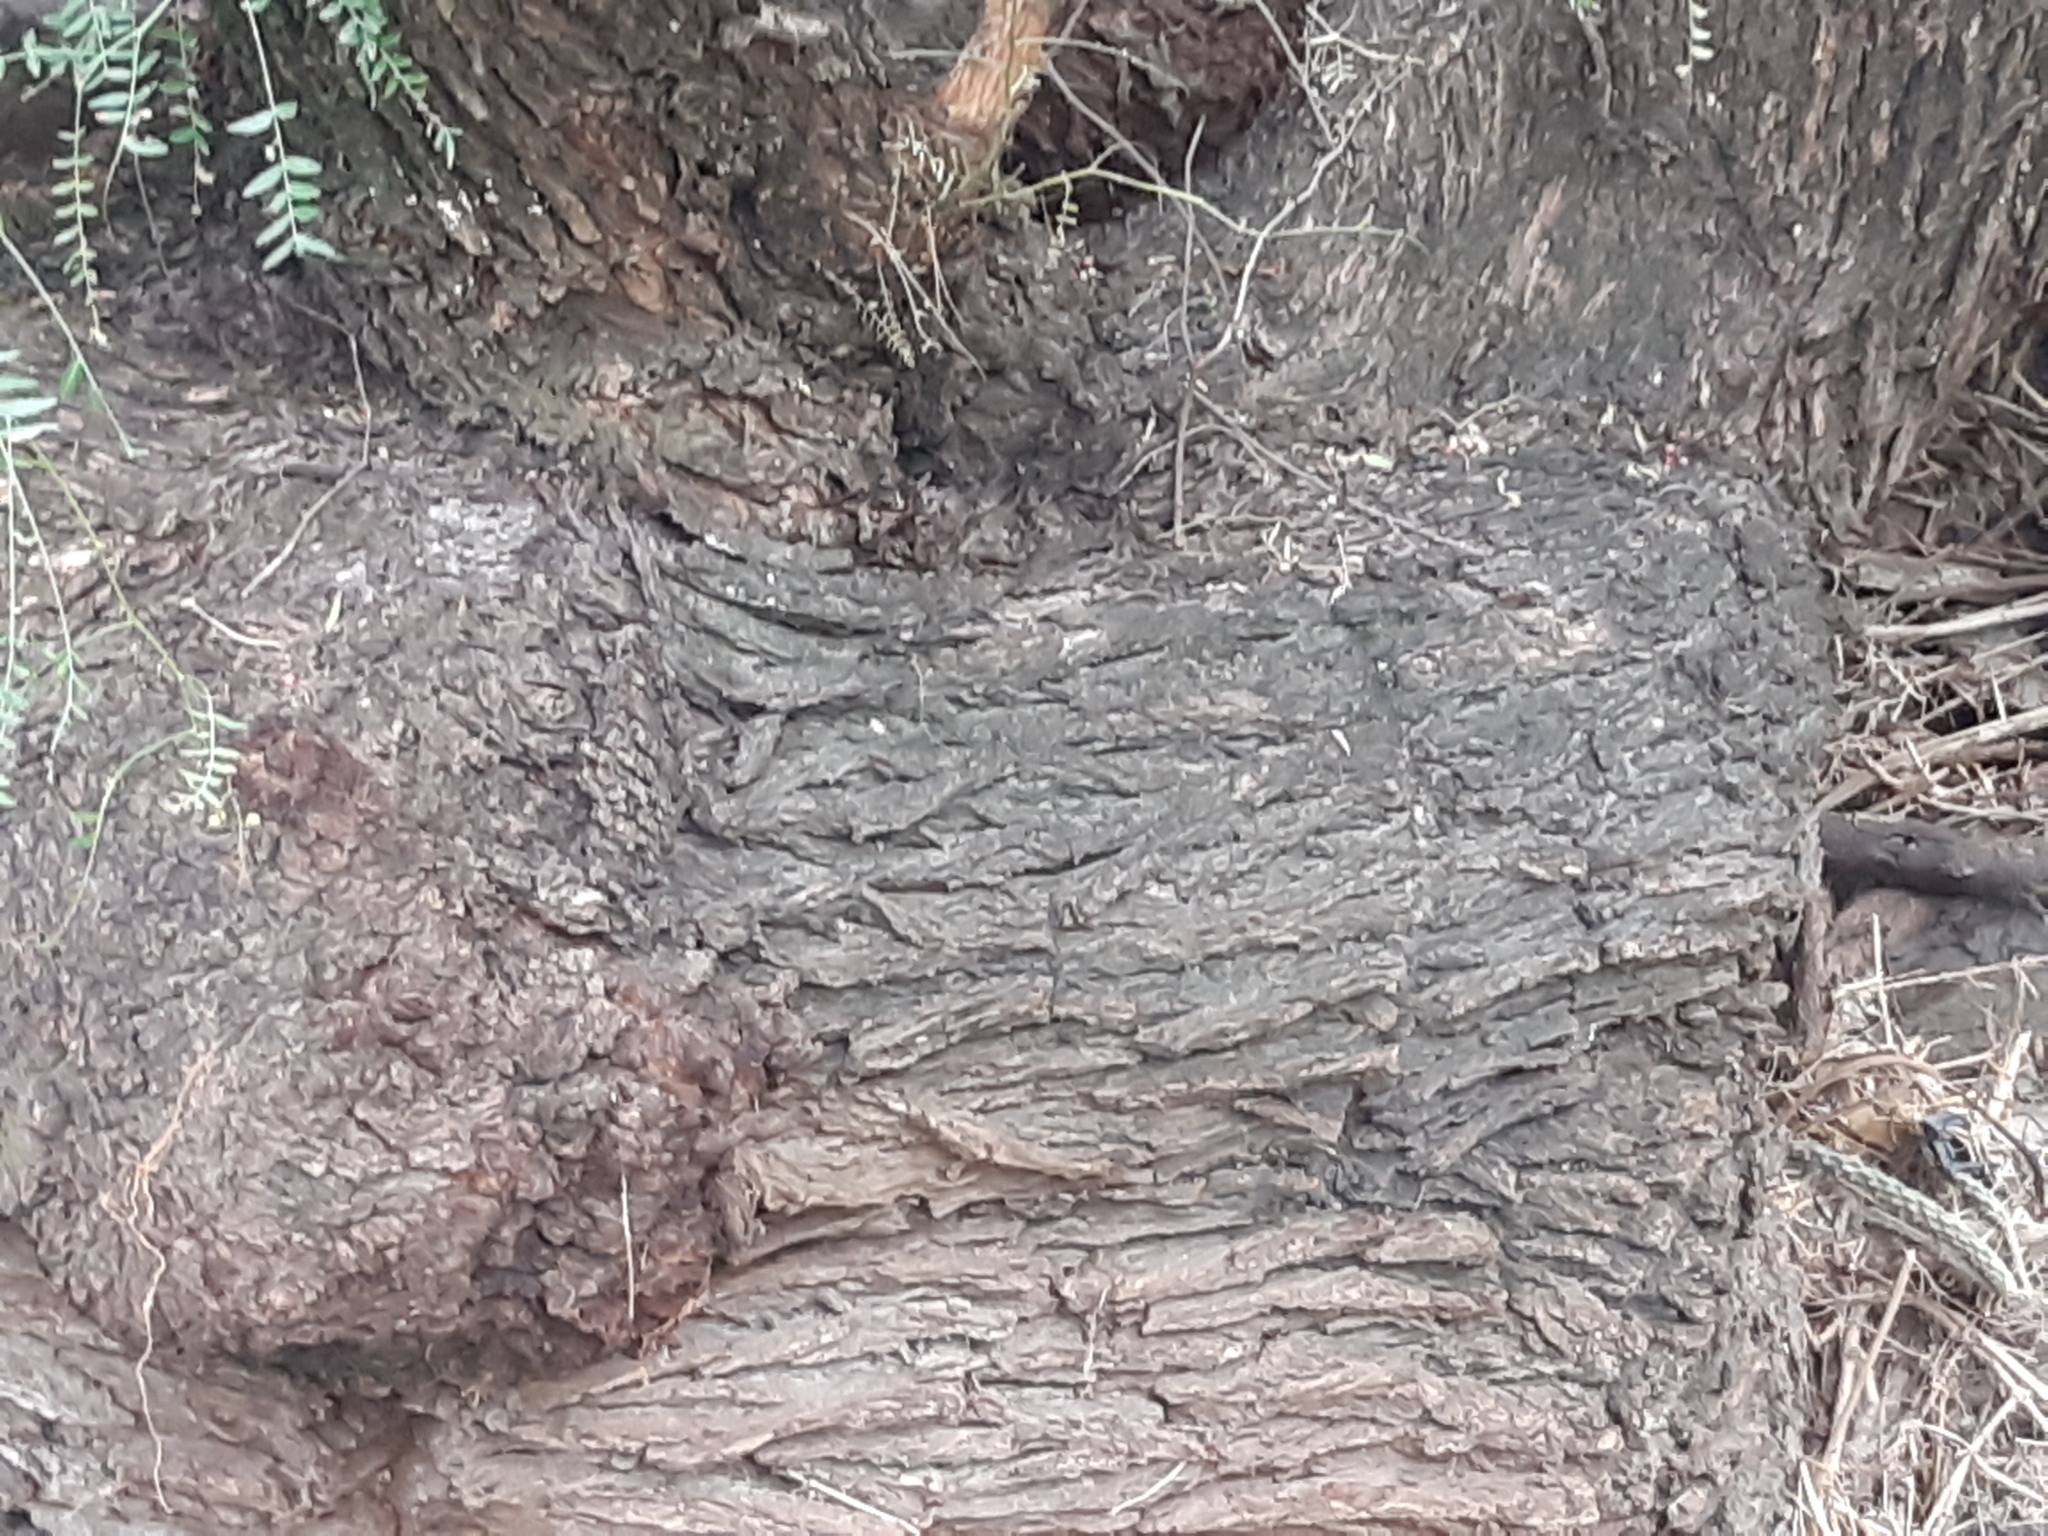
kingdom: Plantae
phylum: Tracheophyta
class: Magnoliopsida
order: Sapindales
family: Anacardiaceae
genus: Schinus
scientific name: Schinus molle
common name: Peruvian peppertree
